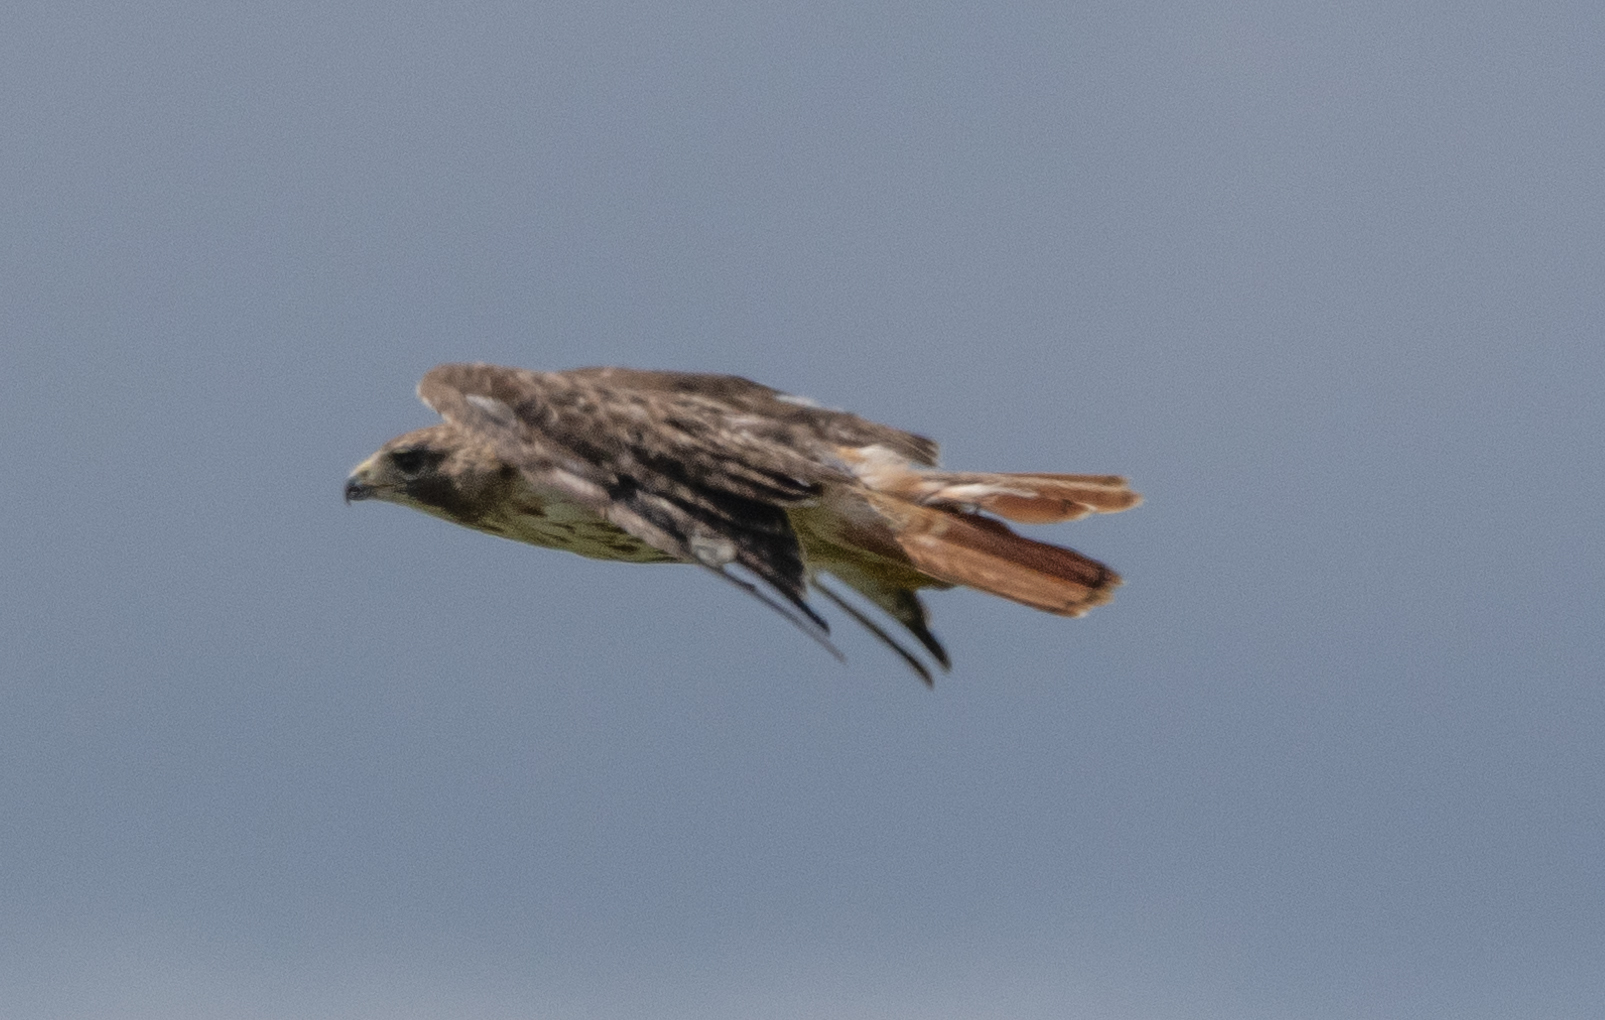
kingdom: Animalia
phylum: Chordata
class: Aves
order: Accipitriformes
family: Accipitridae
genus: Buteo
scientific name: Buteo jamaicensis
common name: Red-tailed hawk
